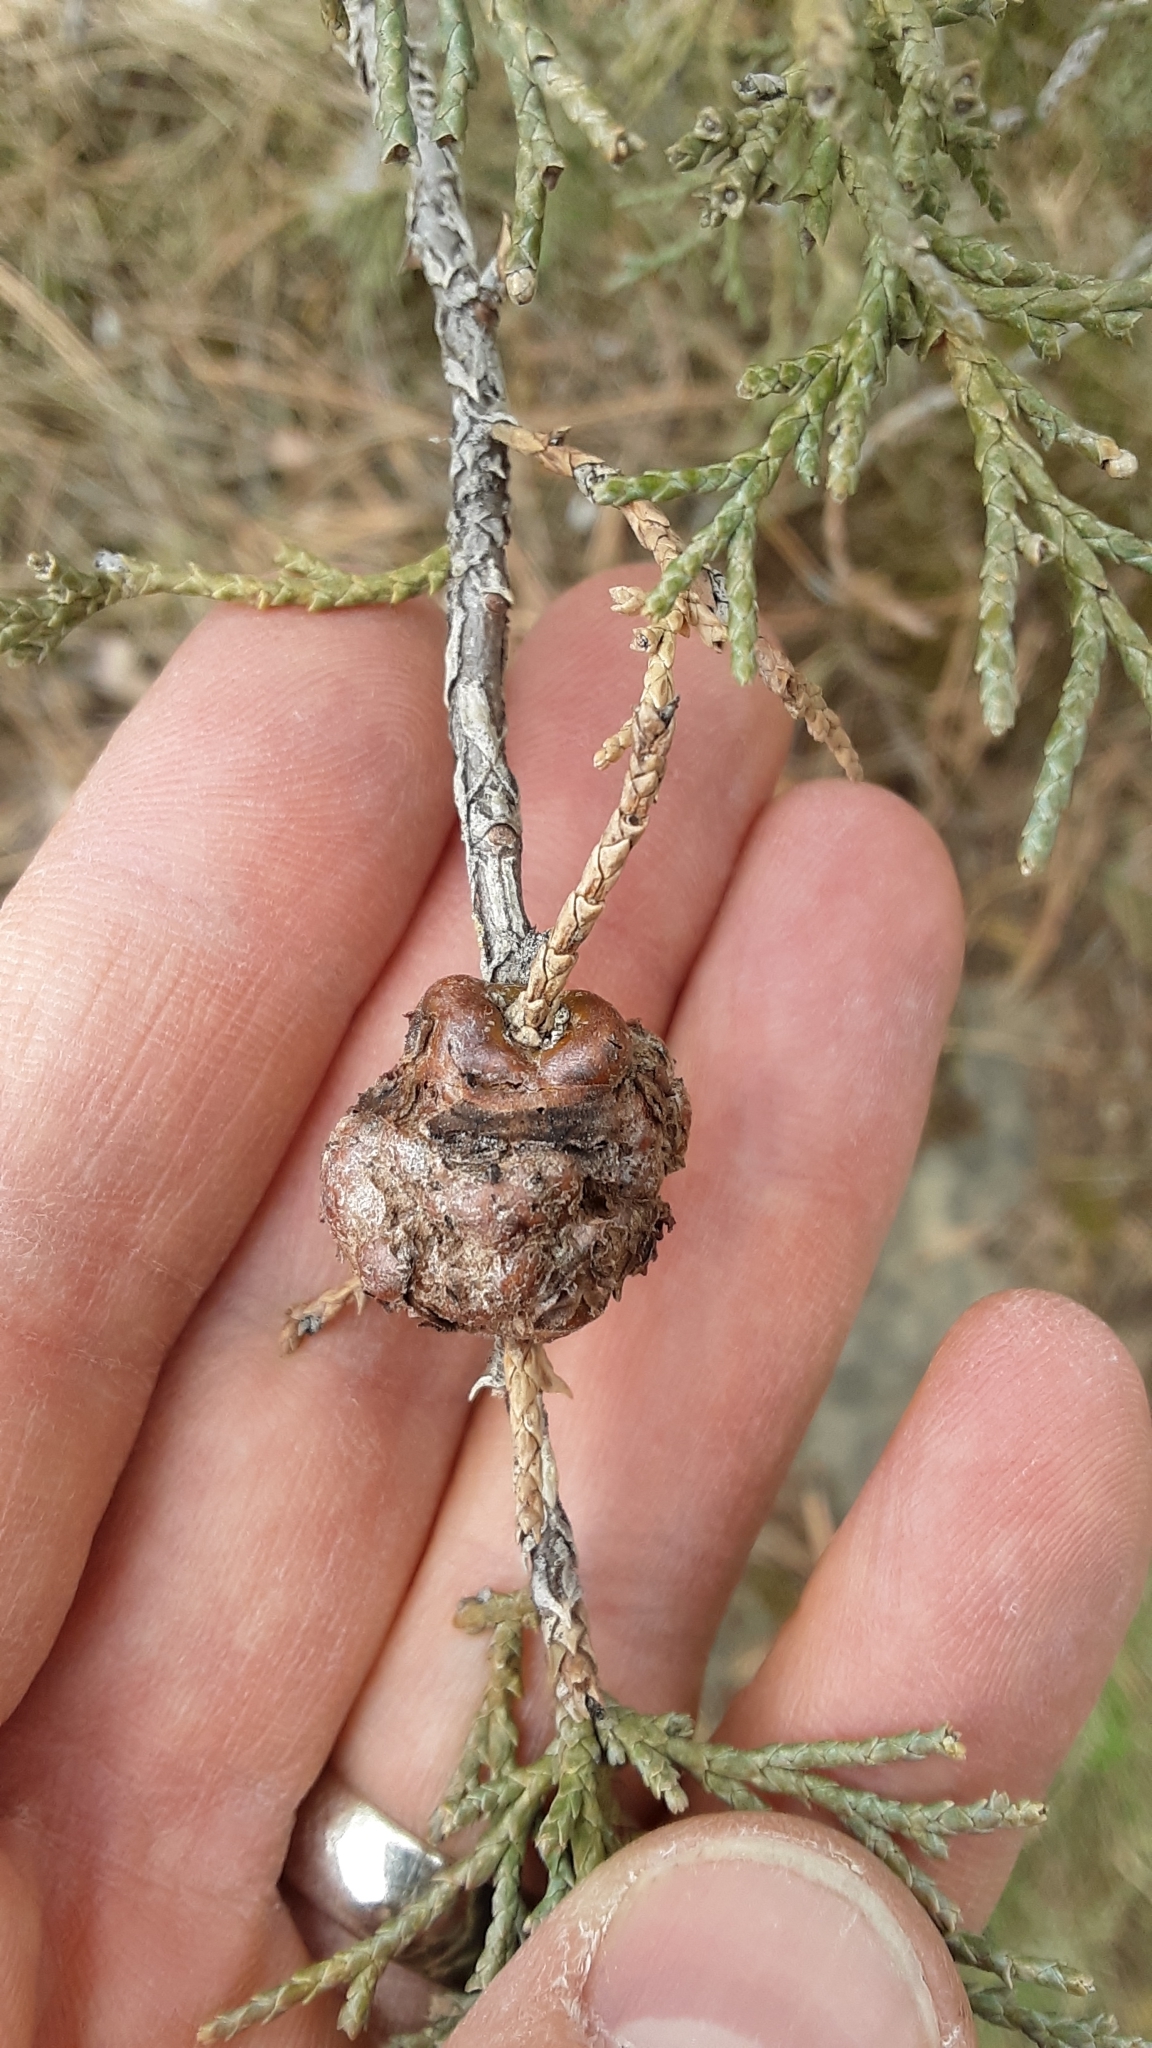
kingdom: Fungi
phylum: Basidiomycota
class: Pucciniomycetes
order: Pucciniales
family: Gymnosporangiaceae
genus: Gymnosporangium
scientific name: Gymnosporangium juniperi-virginianae
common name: Juniper-apple rust
